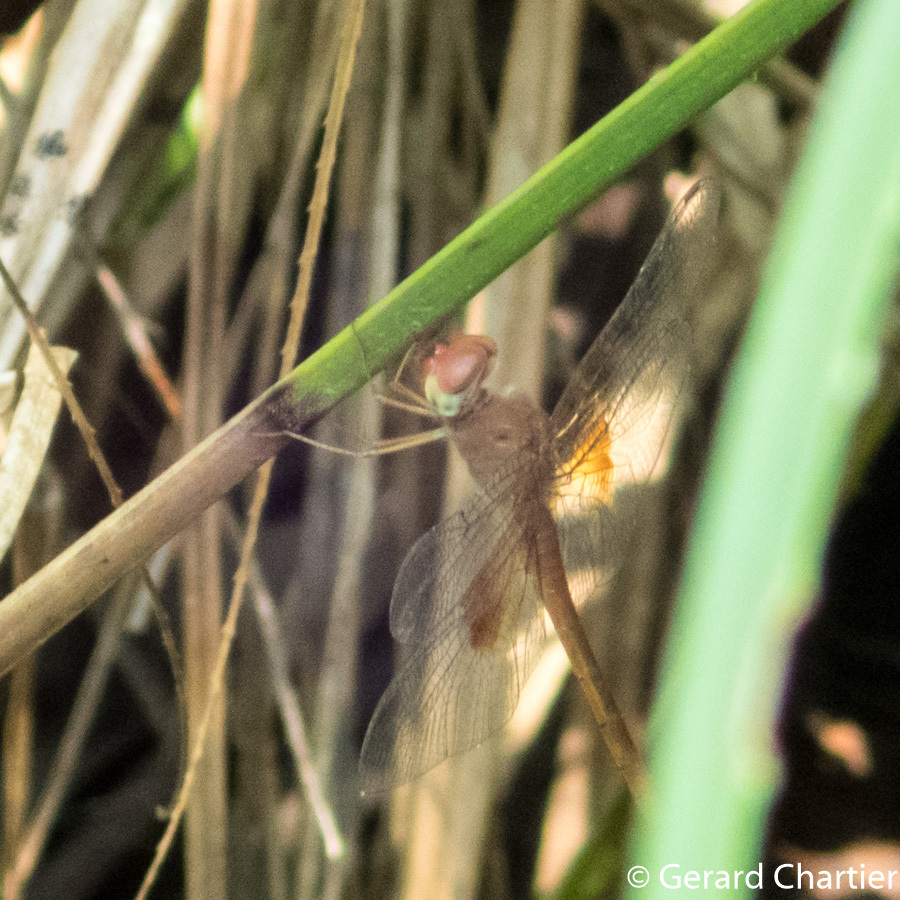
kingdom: Animalia
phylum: Arthropoda
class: Insecta
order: Odonata
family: Libellulidae
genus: Tholymis
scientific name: Tholymis tillarga
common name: Coral-tailed cloud wing
